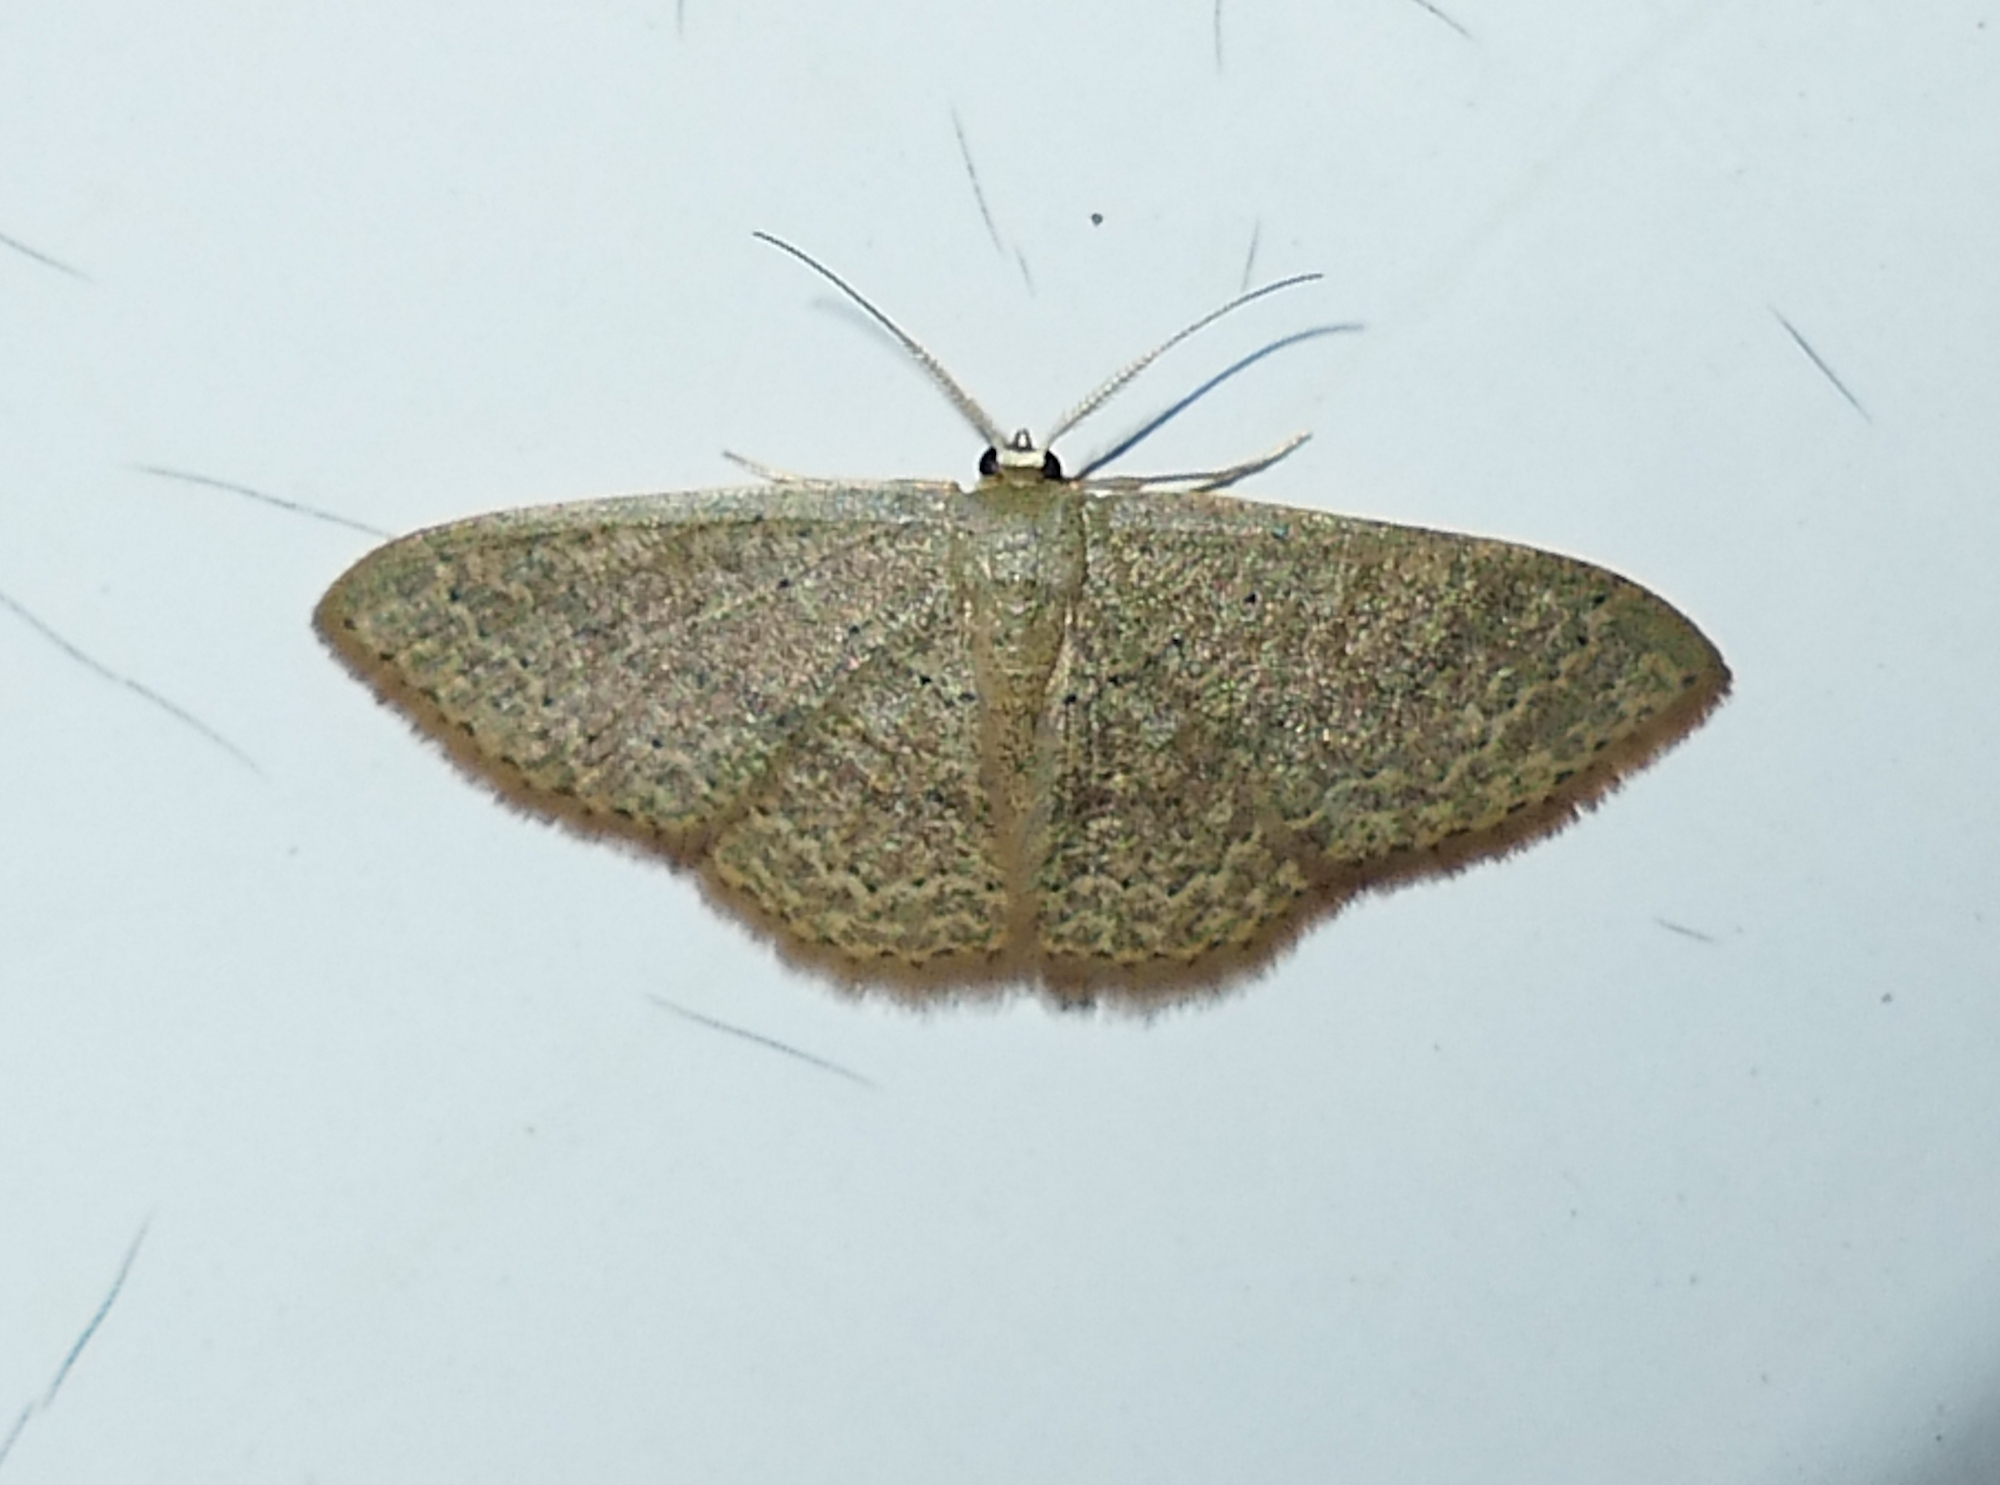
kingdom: Animalia
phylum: Arthropoda
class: Insecta
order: Lepidoptera
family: Geometridae
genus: Pleuroprucha
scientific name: Pleuroprucha insulsaria
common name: Common tan wave
